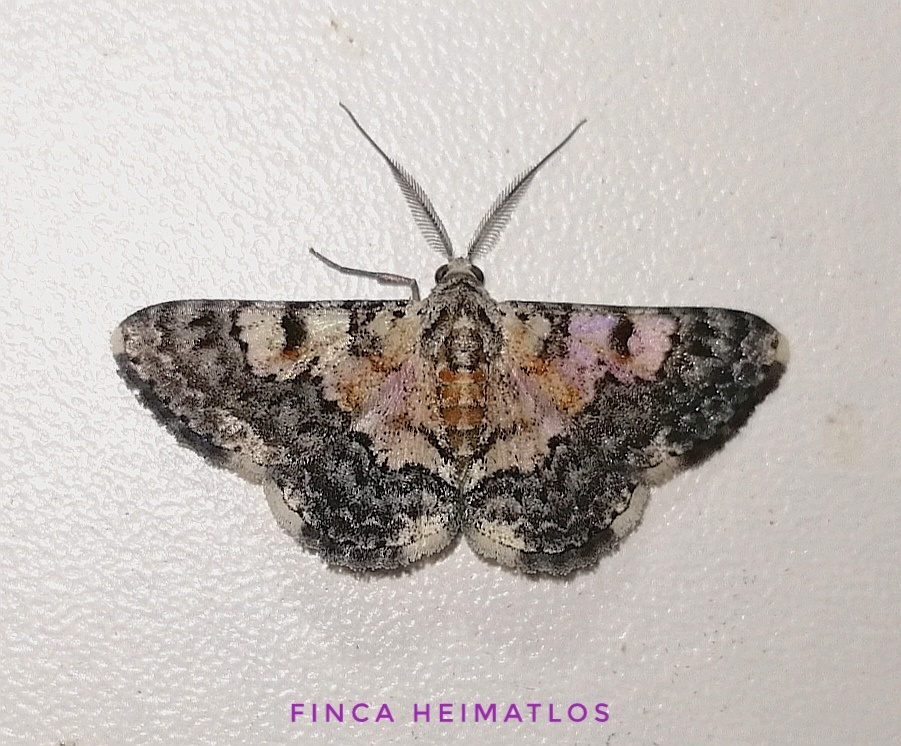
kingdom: Animalia
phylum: Arthropoda
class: Insecta
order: Lepidoptera
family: Geometridae
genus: Hymenomima
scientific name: Hymenomima semialba
